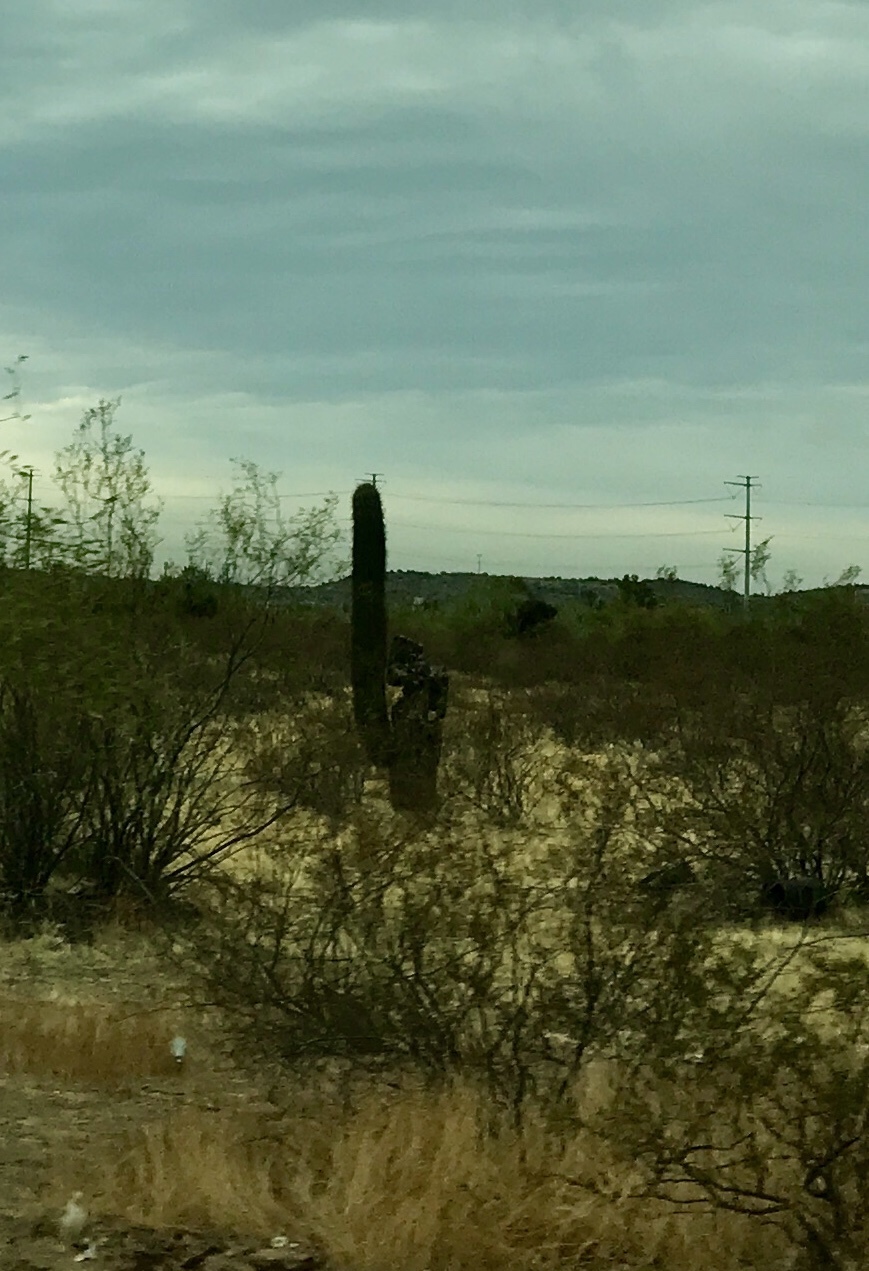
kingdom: Plantae
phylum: Tracheophyta
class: Magnoliopsida
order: Caryophyllales
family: Cactaceae
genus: Carnegiea
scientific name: Carnegiea gigantea
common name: Saguaro
